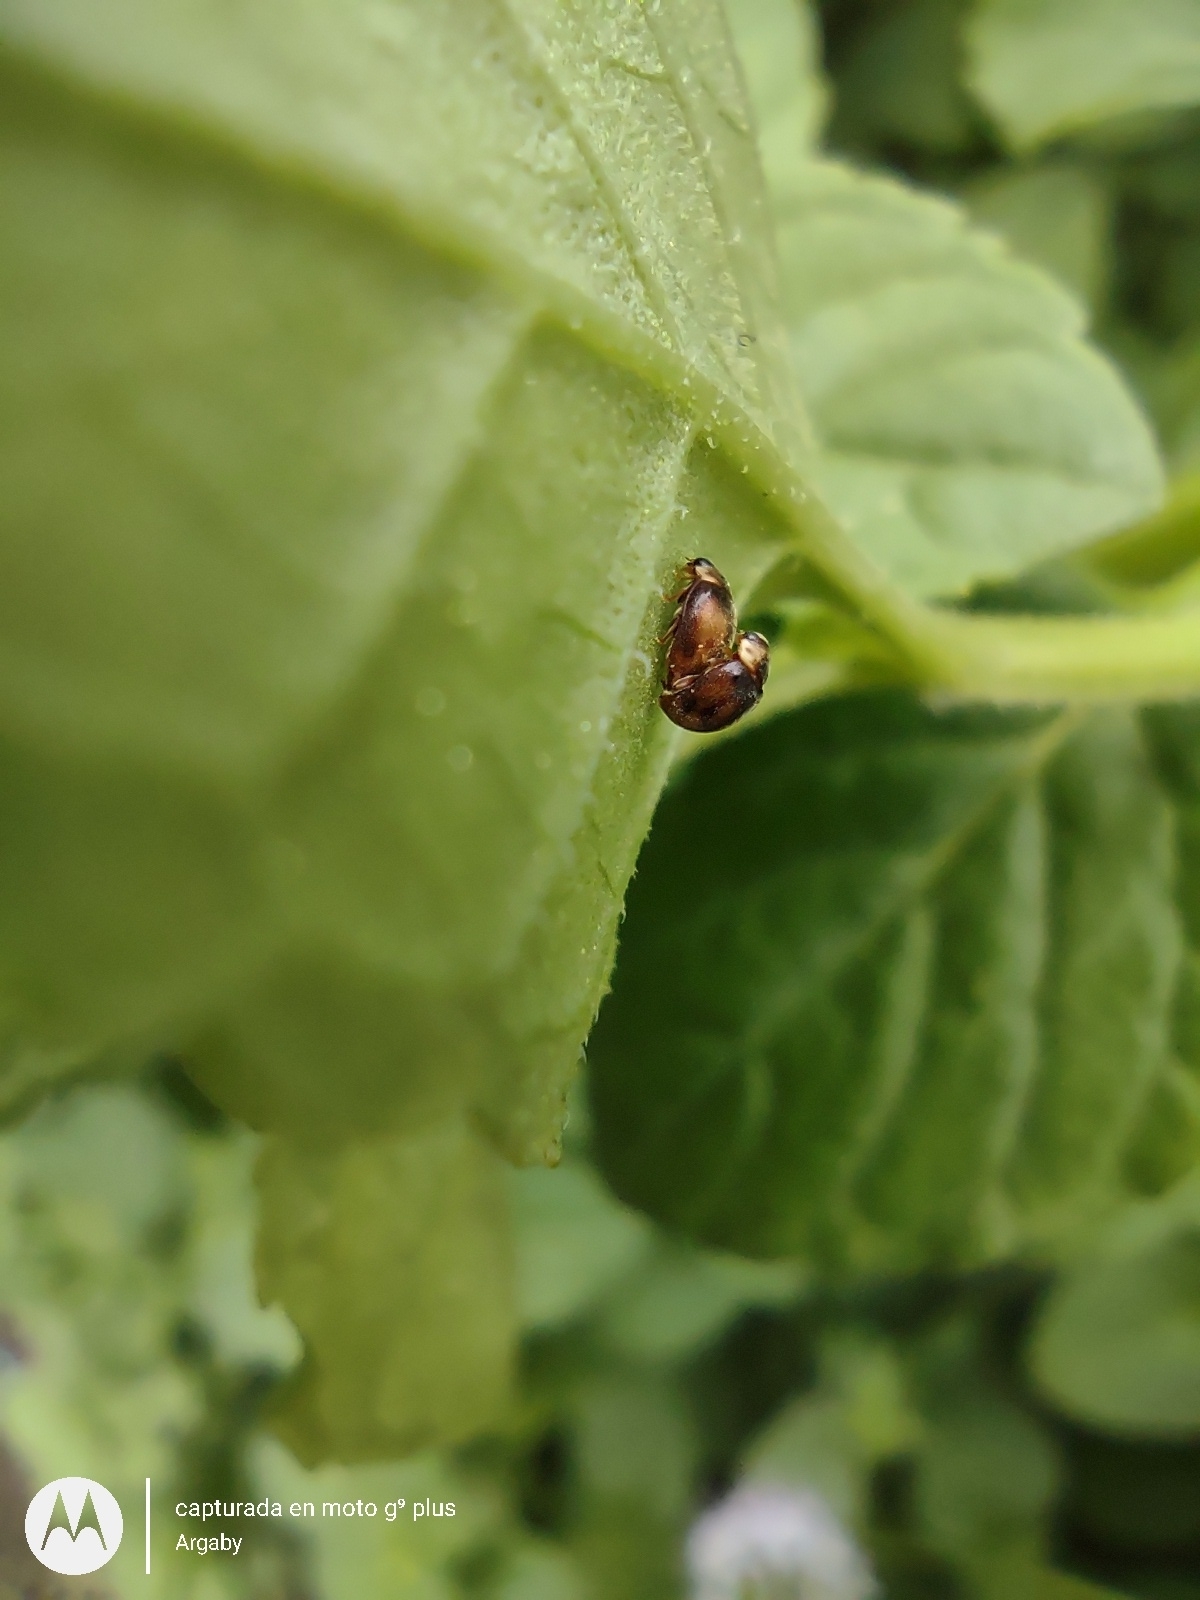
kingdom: Animalia
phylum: Arthropoda
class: Insecta
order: Coleoptera
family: Coccinellidae
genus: Diomus
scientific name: Diomus
